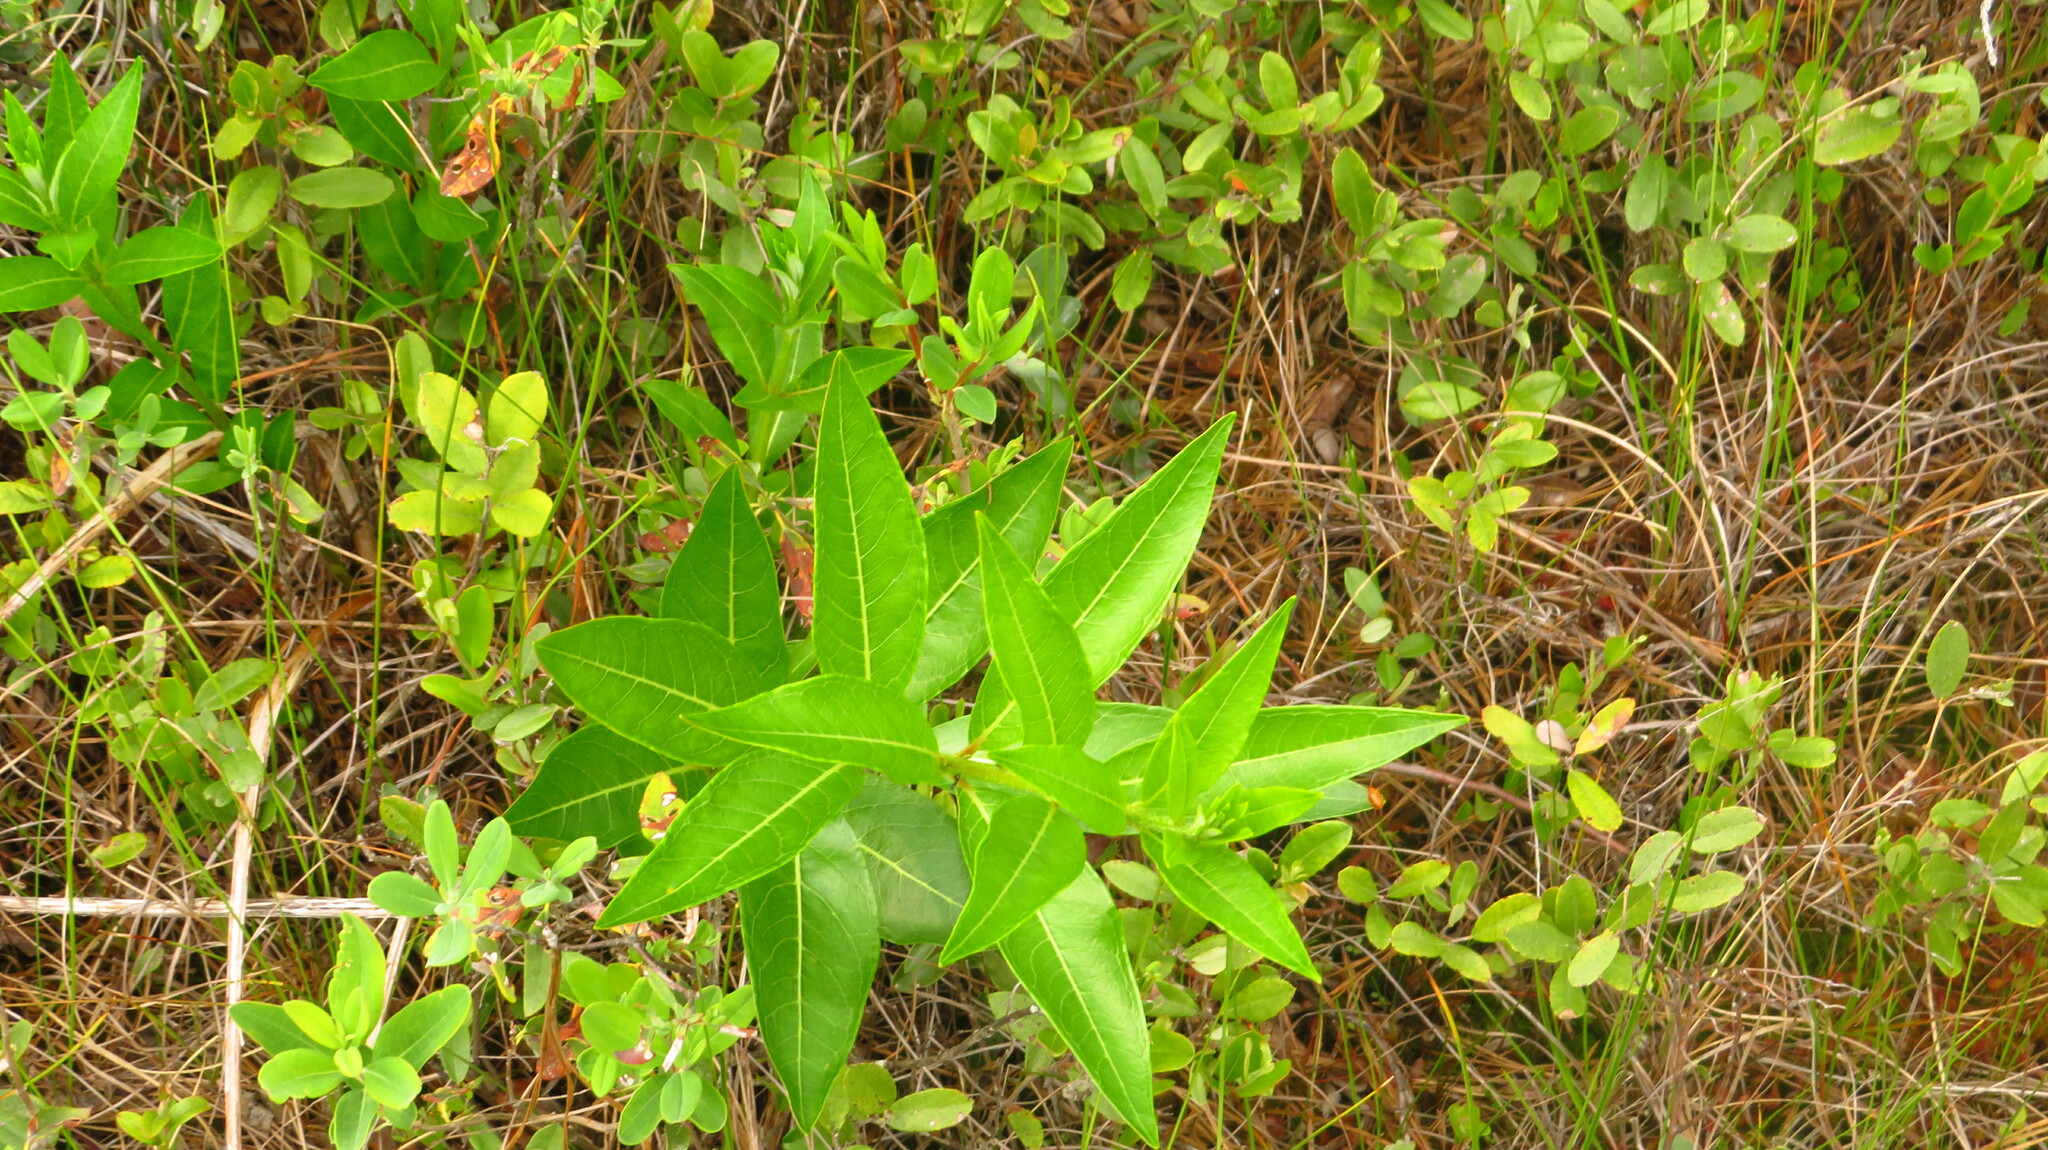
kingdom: Plantae
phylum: Tracheophyta
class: Magnoliopsida
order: Myrtales
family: Lythraceae
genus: Decodon
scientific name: Decodon verticillatus
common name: Hairy swamp loosestrife
